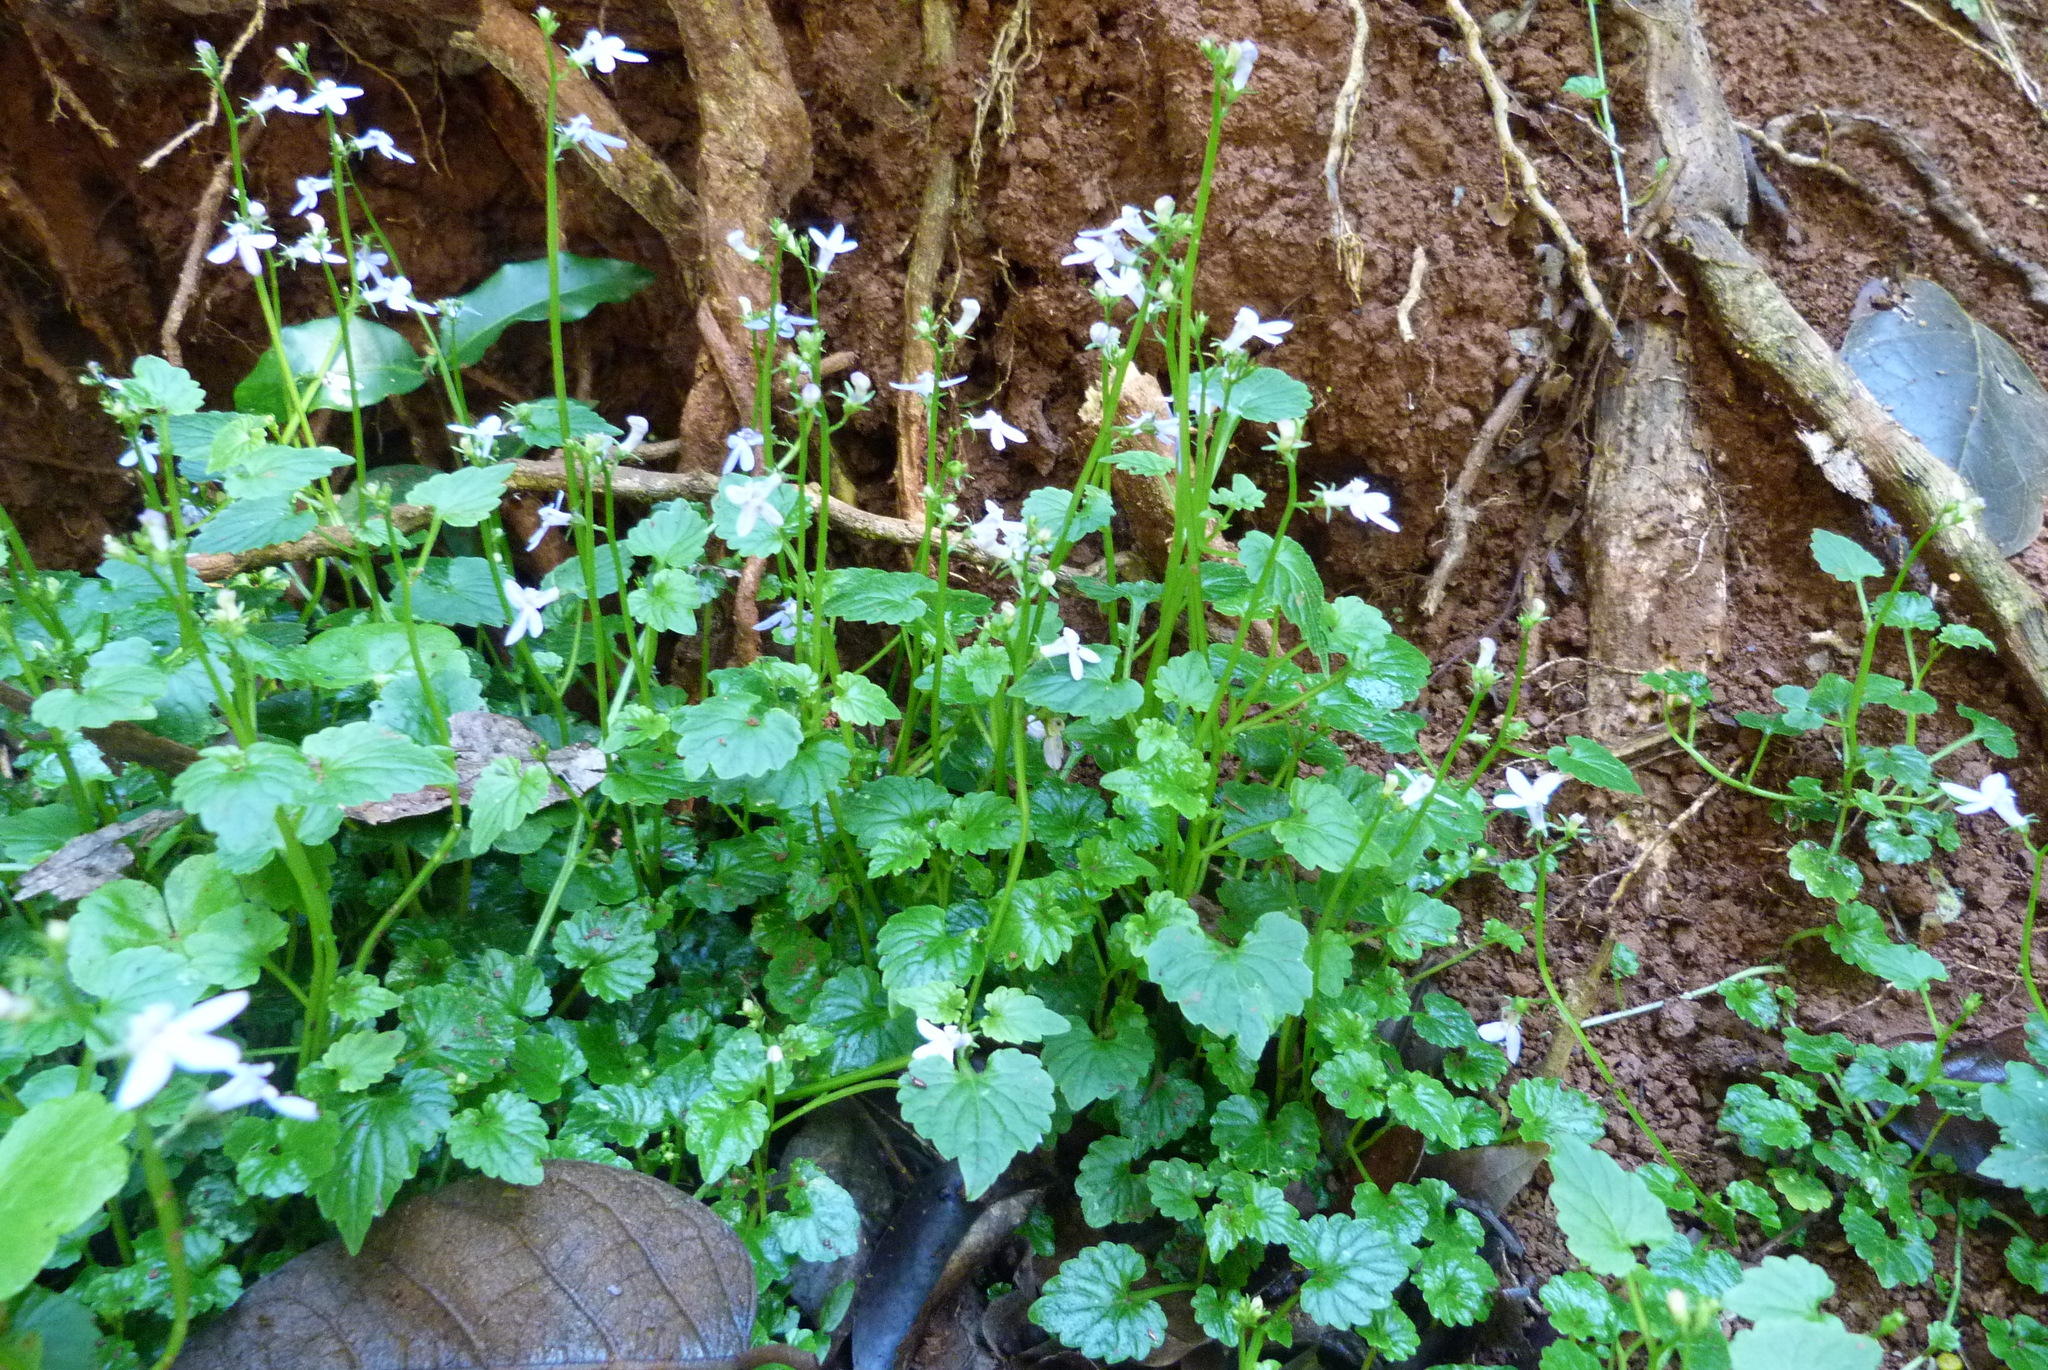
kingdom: Plantae
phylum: Tracheophyta
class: Magnoliopsida
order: Asterales
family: Campanulaceae
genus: Lobelia
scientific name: Lobelia trigonocaulis
